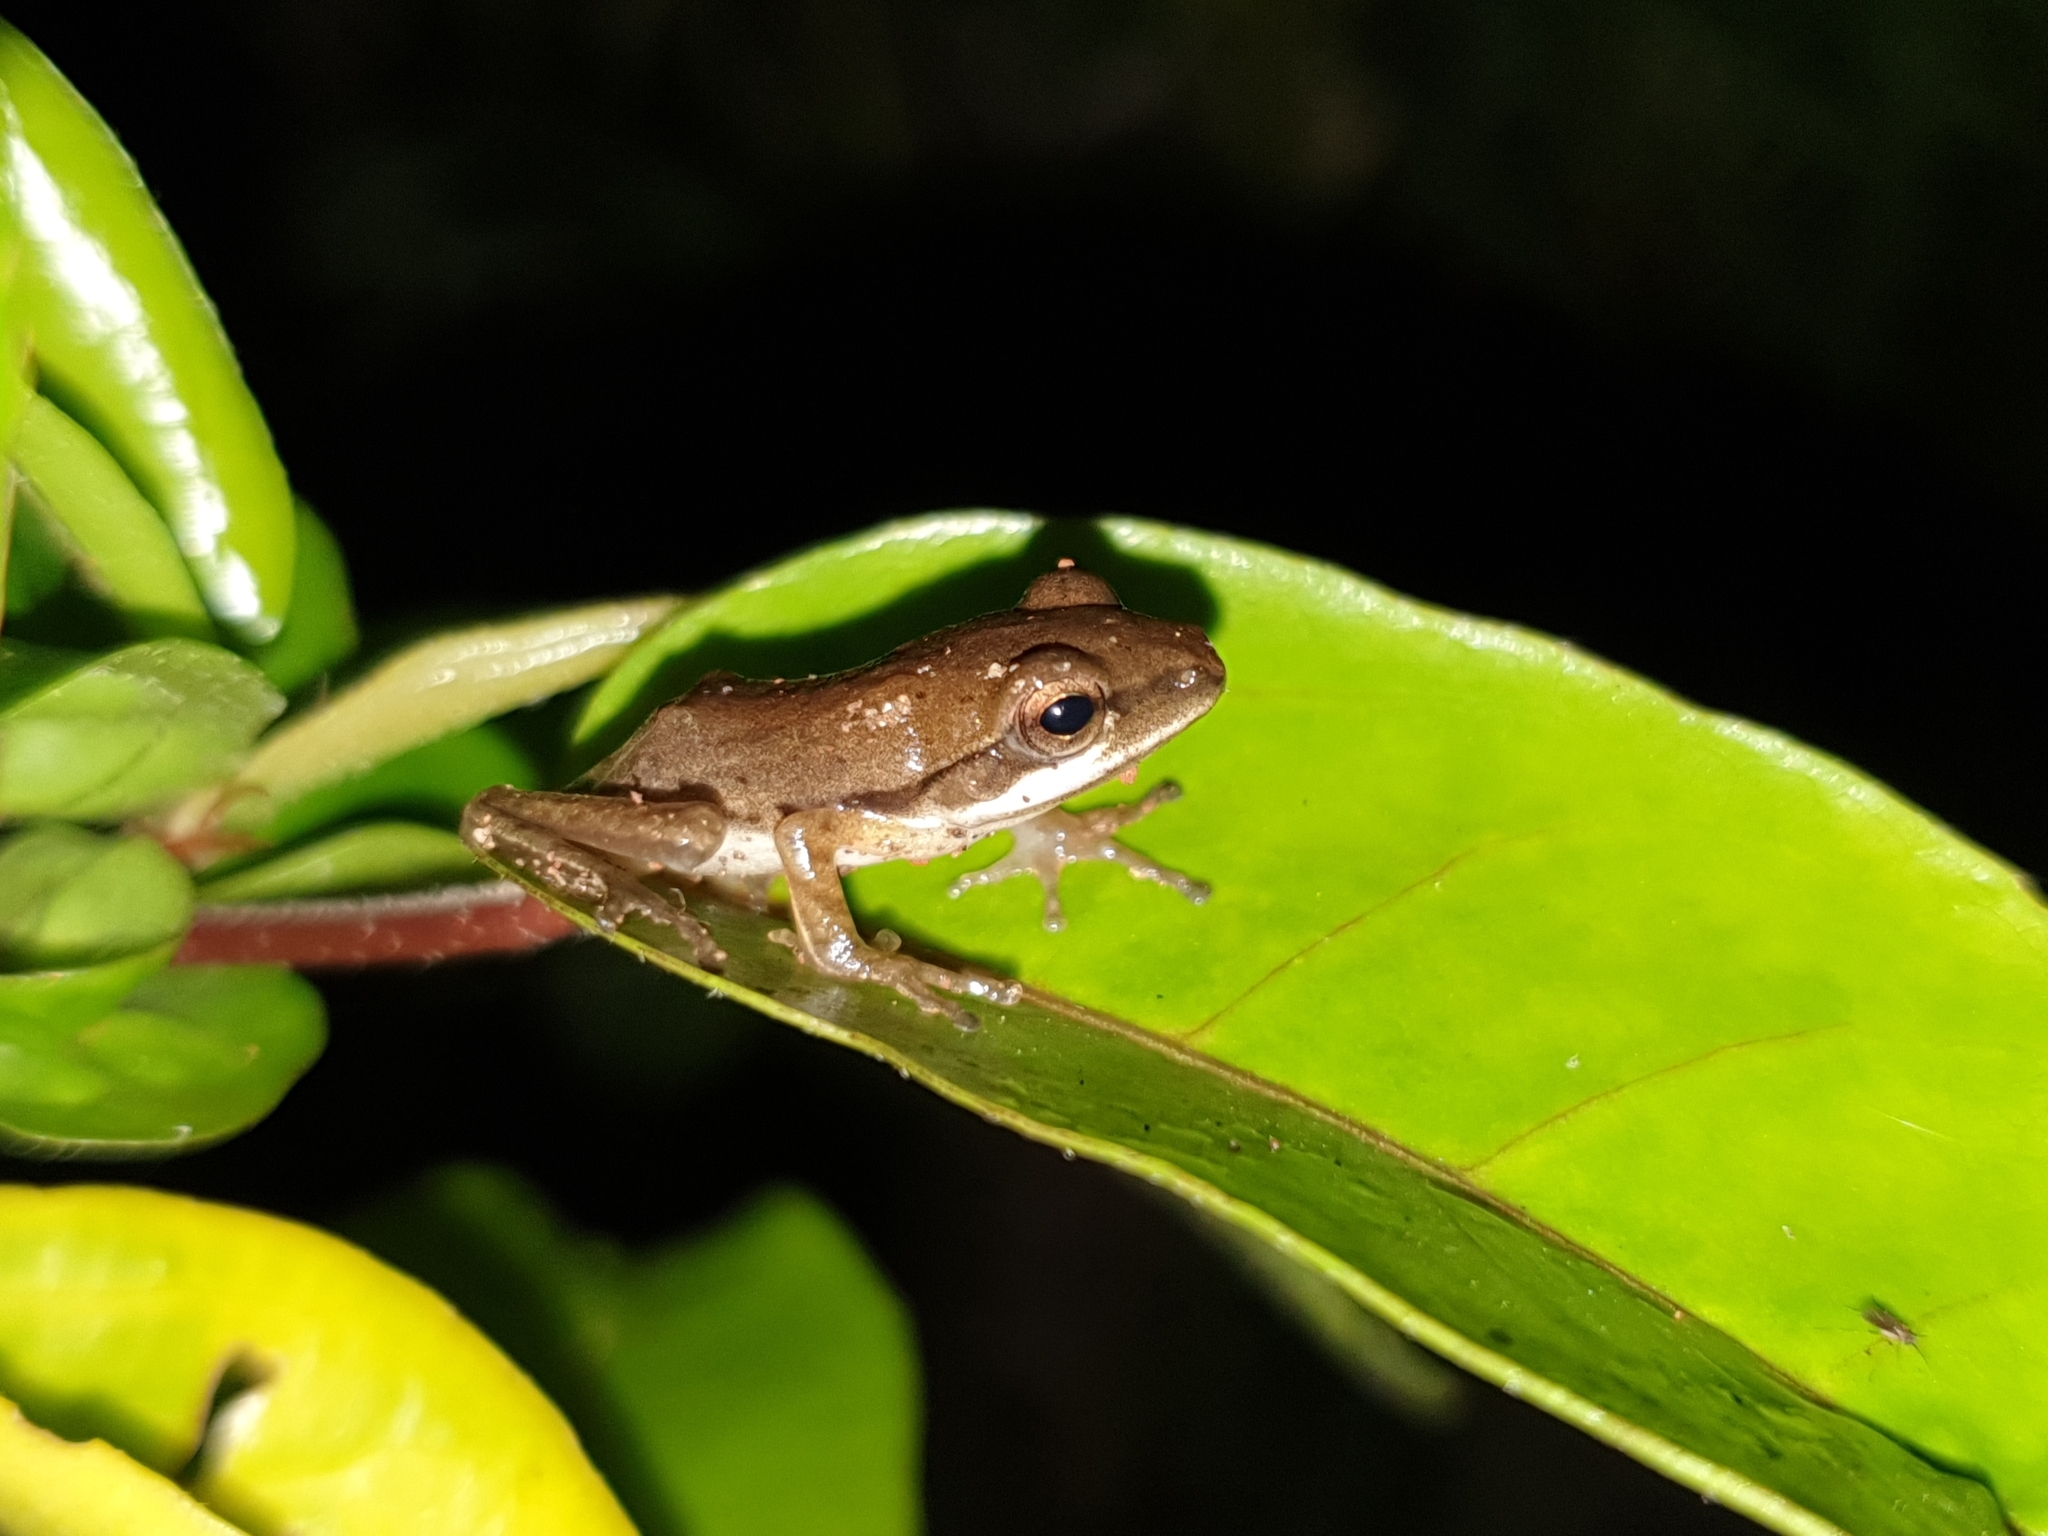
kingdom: Animalia
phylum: Chordata
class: Amphibia
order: Anura
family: Rhacophoridae
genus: Polypedates
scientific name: Polypedates maculatus
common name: Himalayan tree frog
